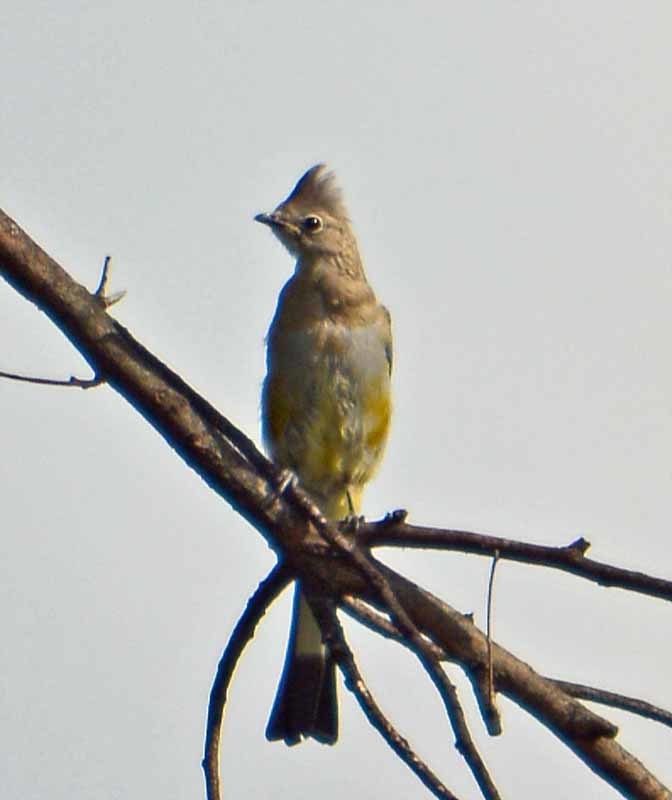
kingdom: Animalia
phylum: Chordata
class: Aves
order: Passeriformes
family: Ptilogonatidae
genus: Ptilogonys
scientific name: Ptilogonys cinereus
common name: Gray silky-flycatcher
